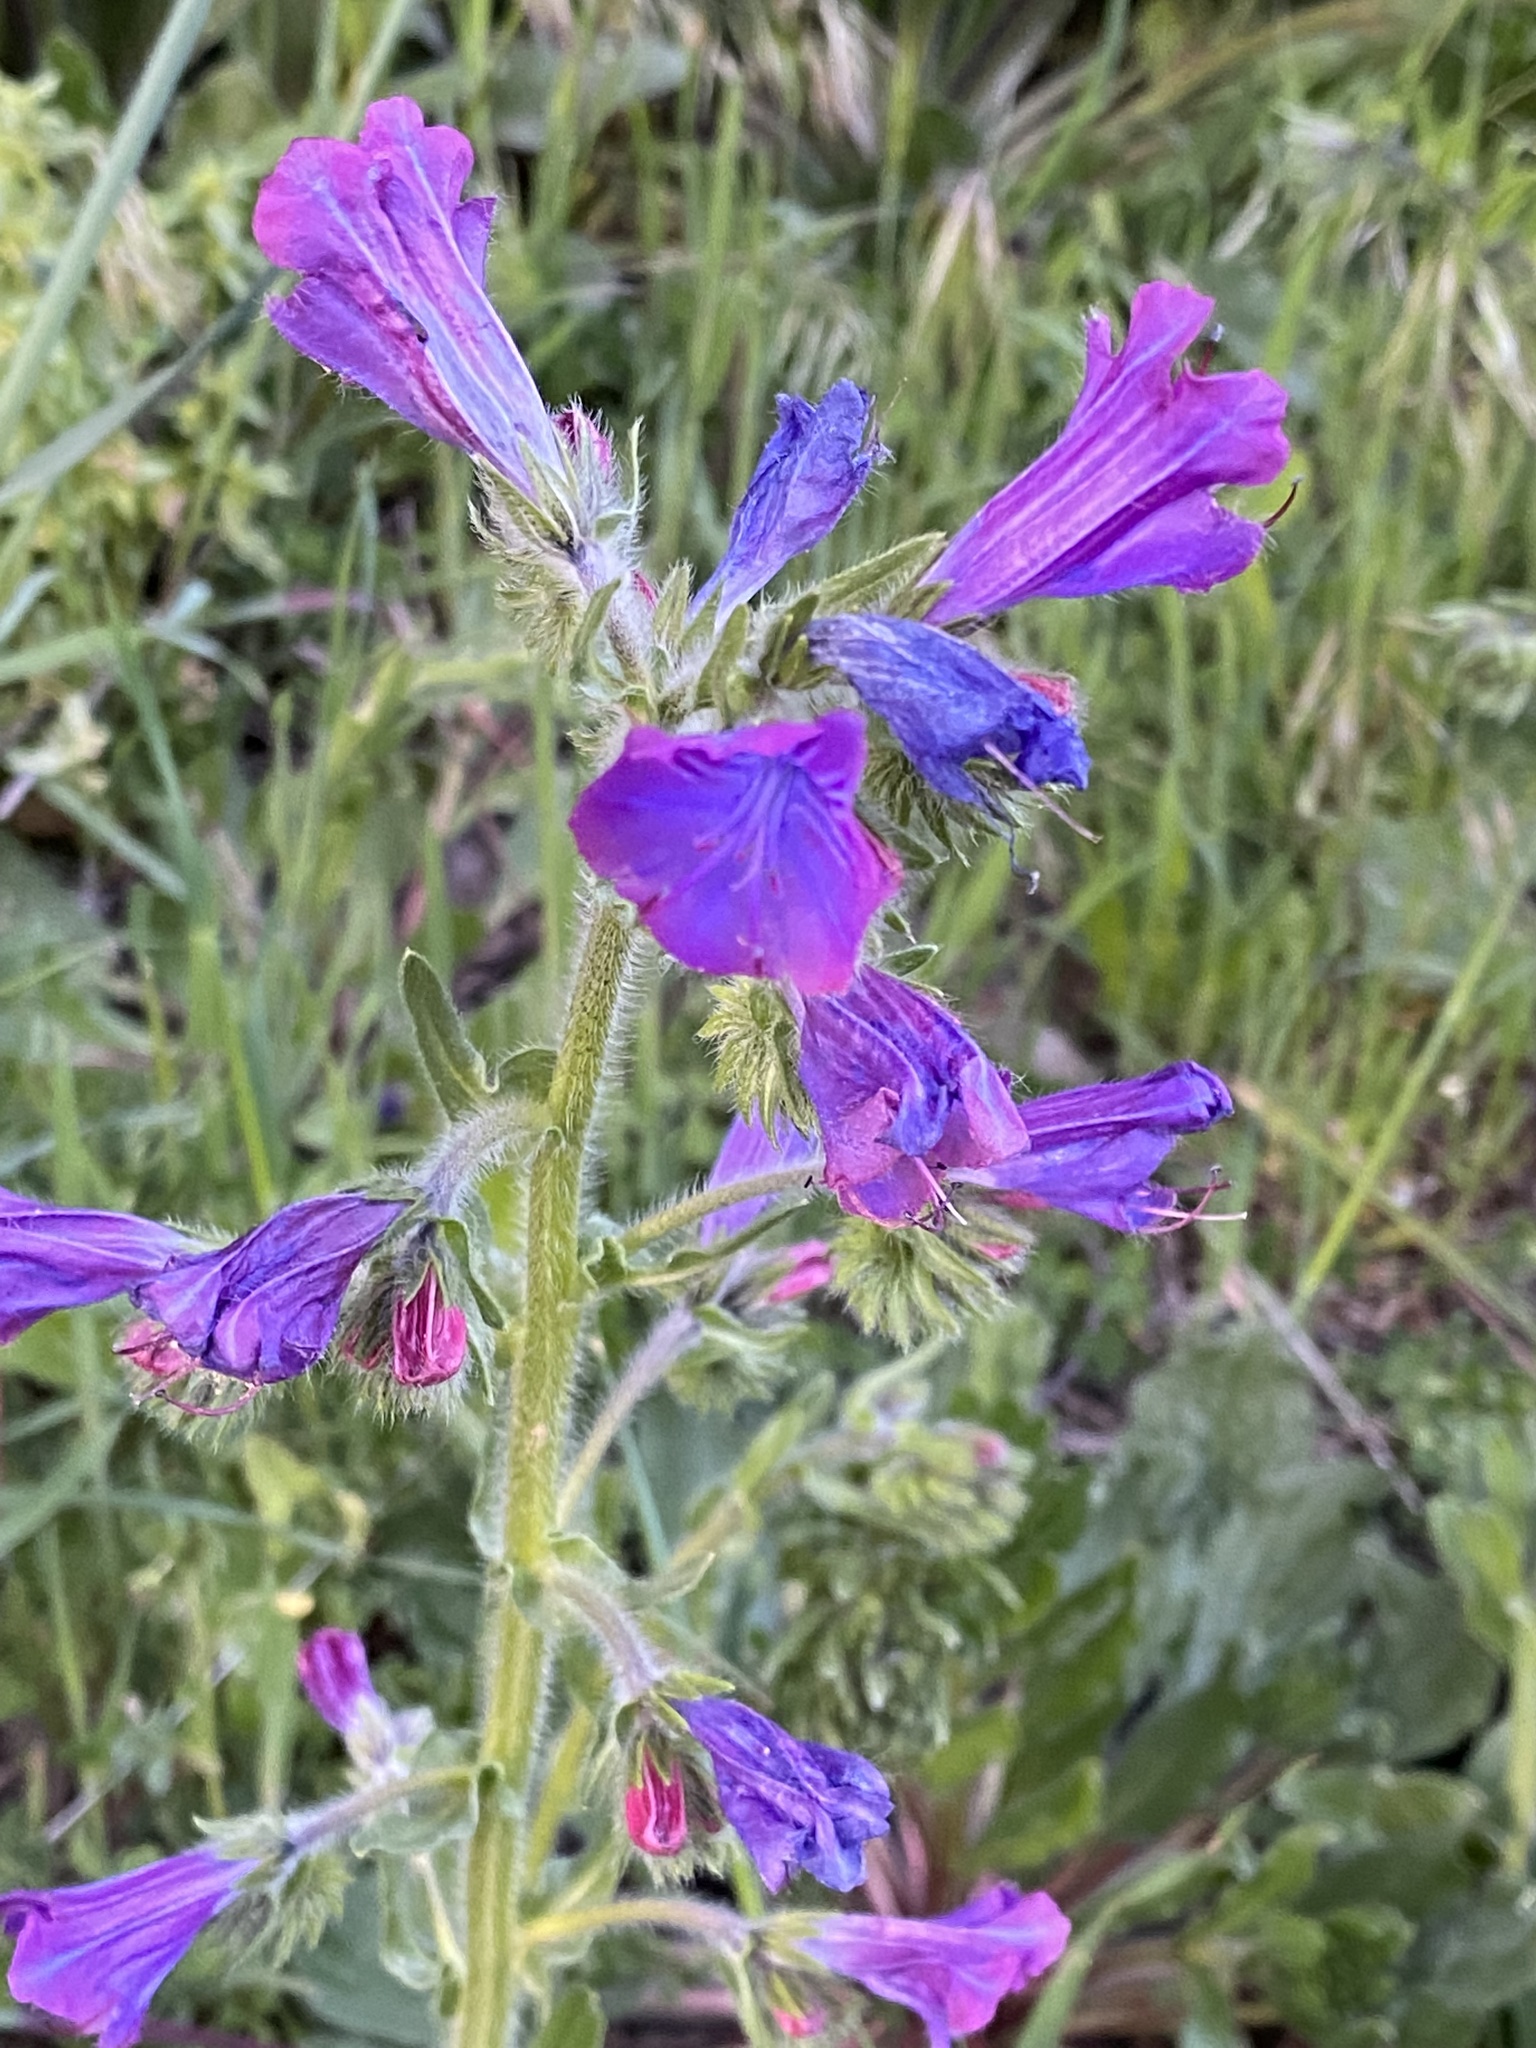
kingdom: Plantae
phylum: Tracheophyta
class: Magnoliopsida
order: Boraginales
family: Boraginaceae
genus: Echium
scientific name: Echium plantagineum
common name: Purple viper's-bugloss
